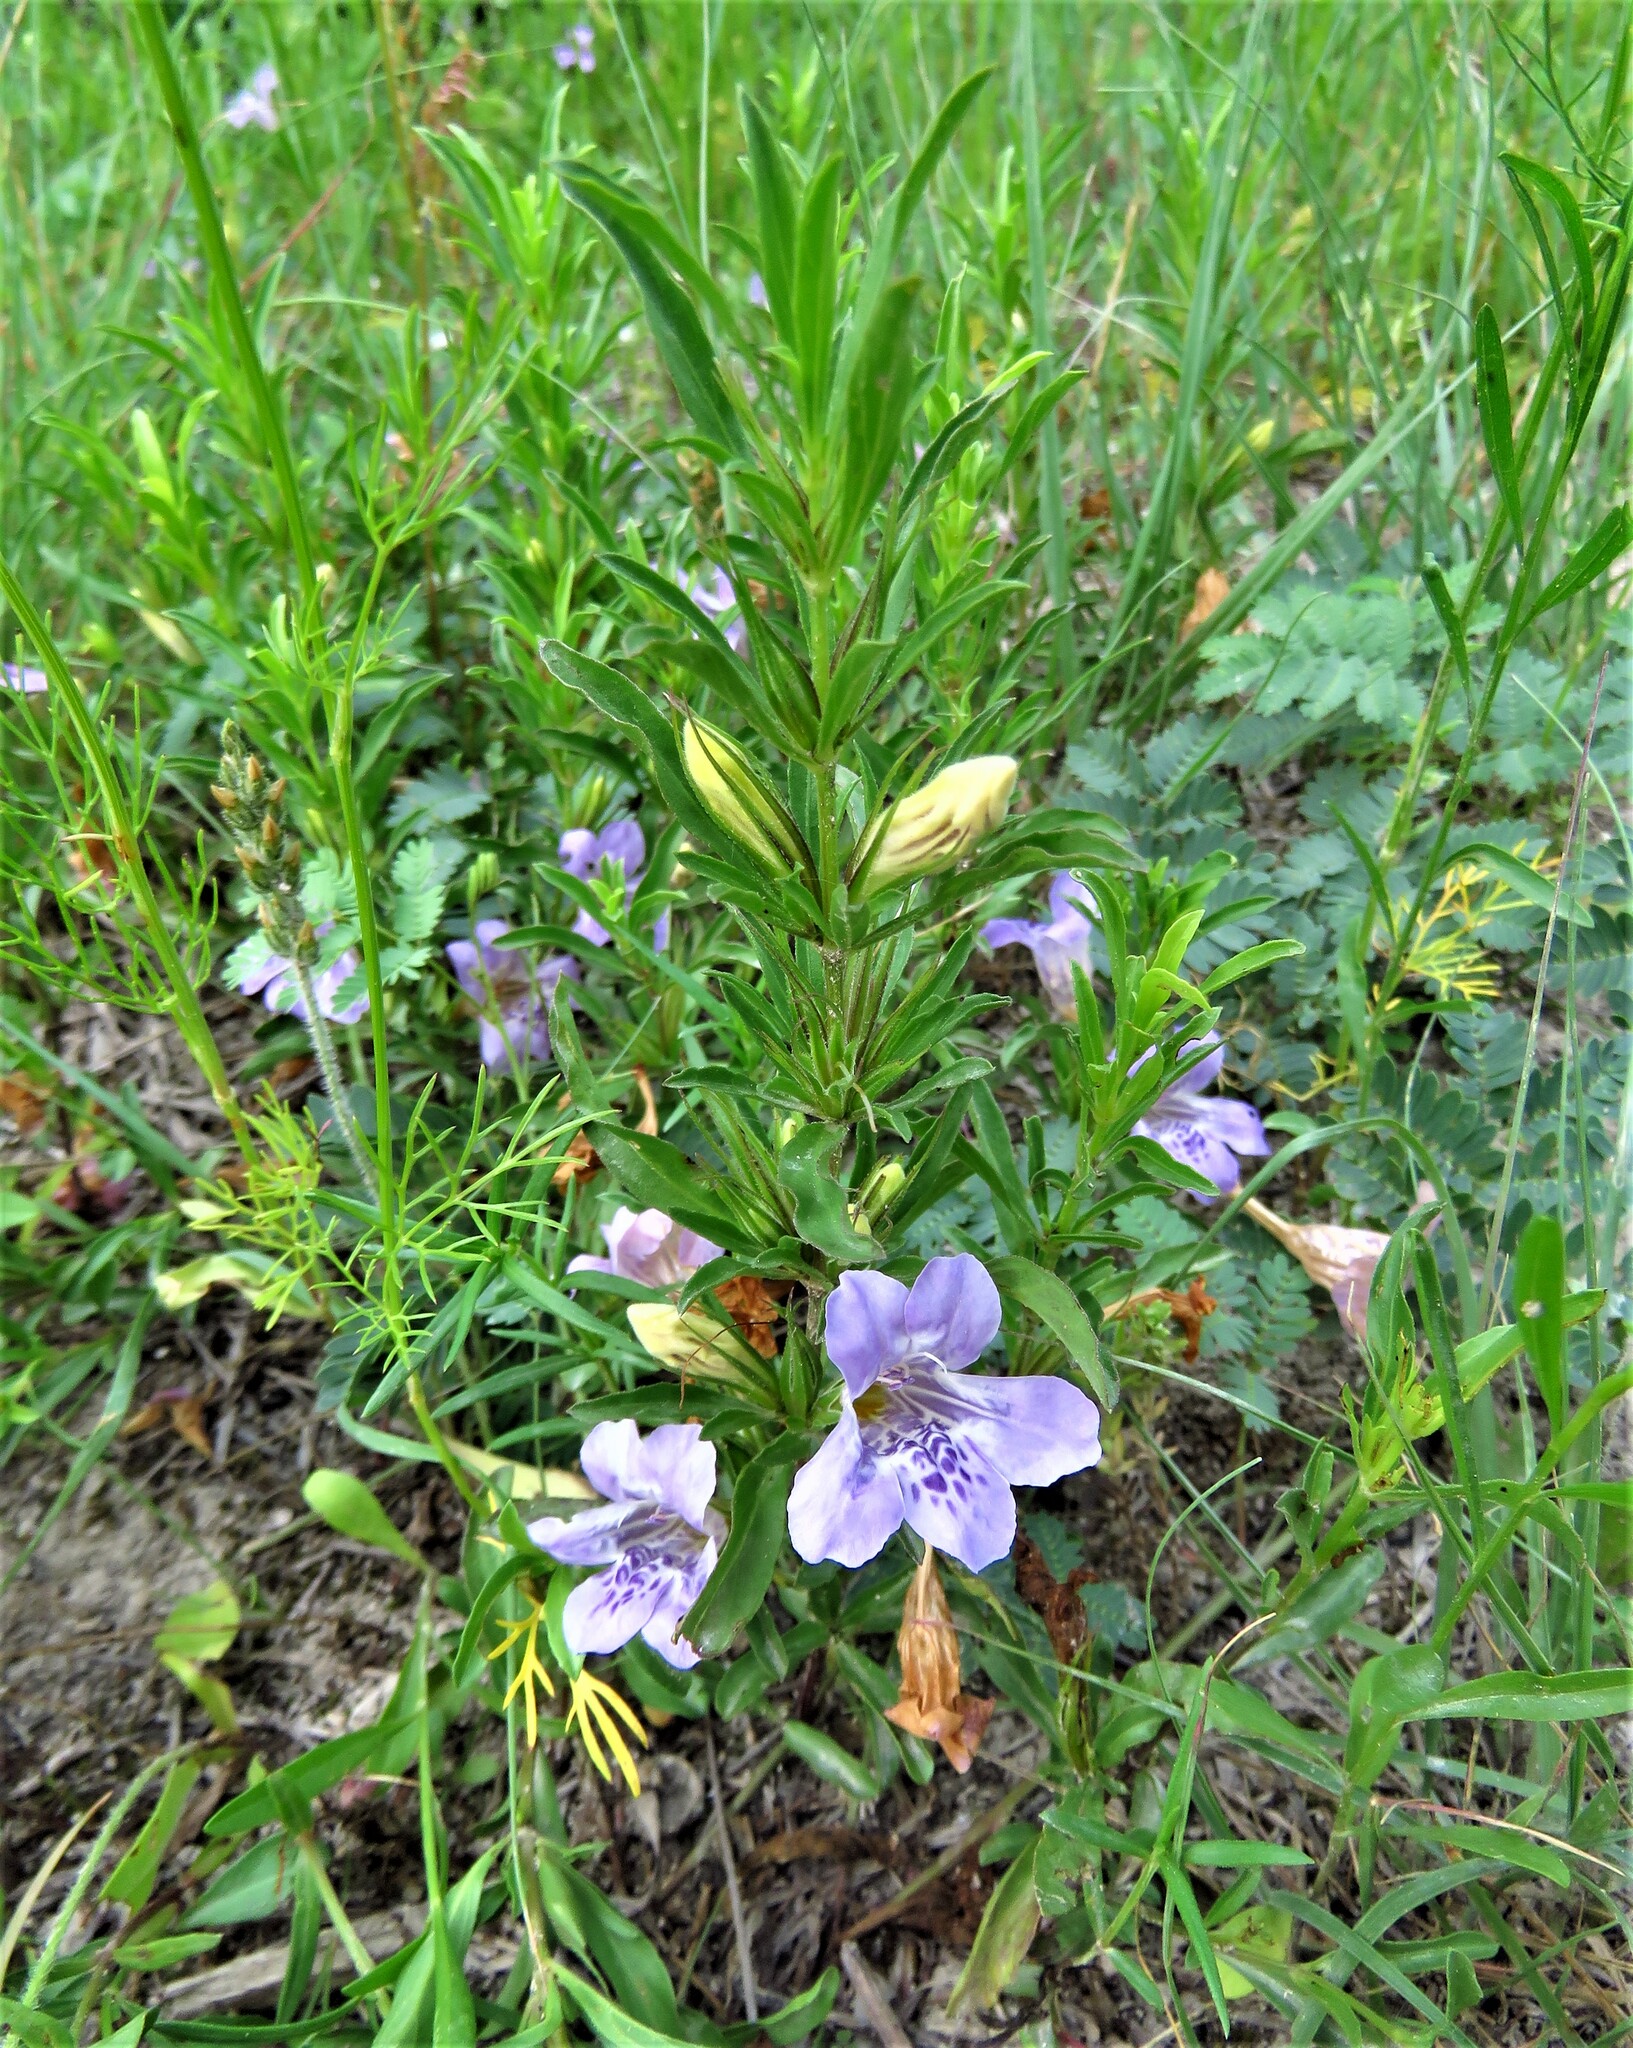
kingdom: Plantae
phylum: Tracheophyta
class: Magnoliopsida
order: Lamiales
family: Acanthaceae
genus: Dyschoriste
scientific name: Dyschoriste linearis
